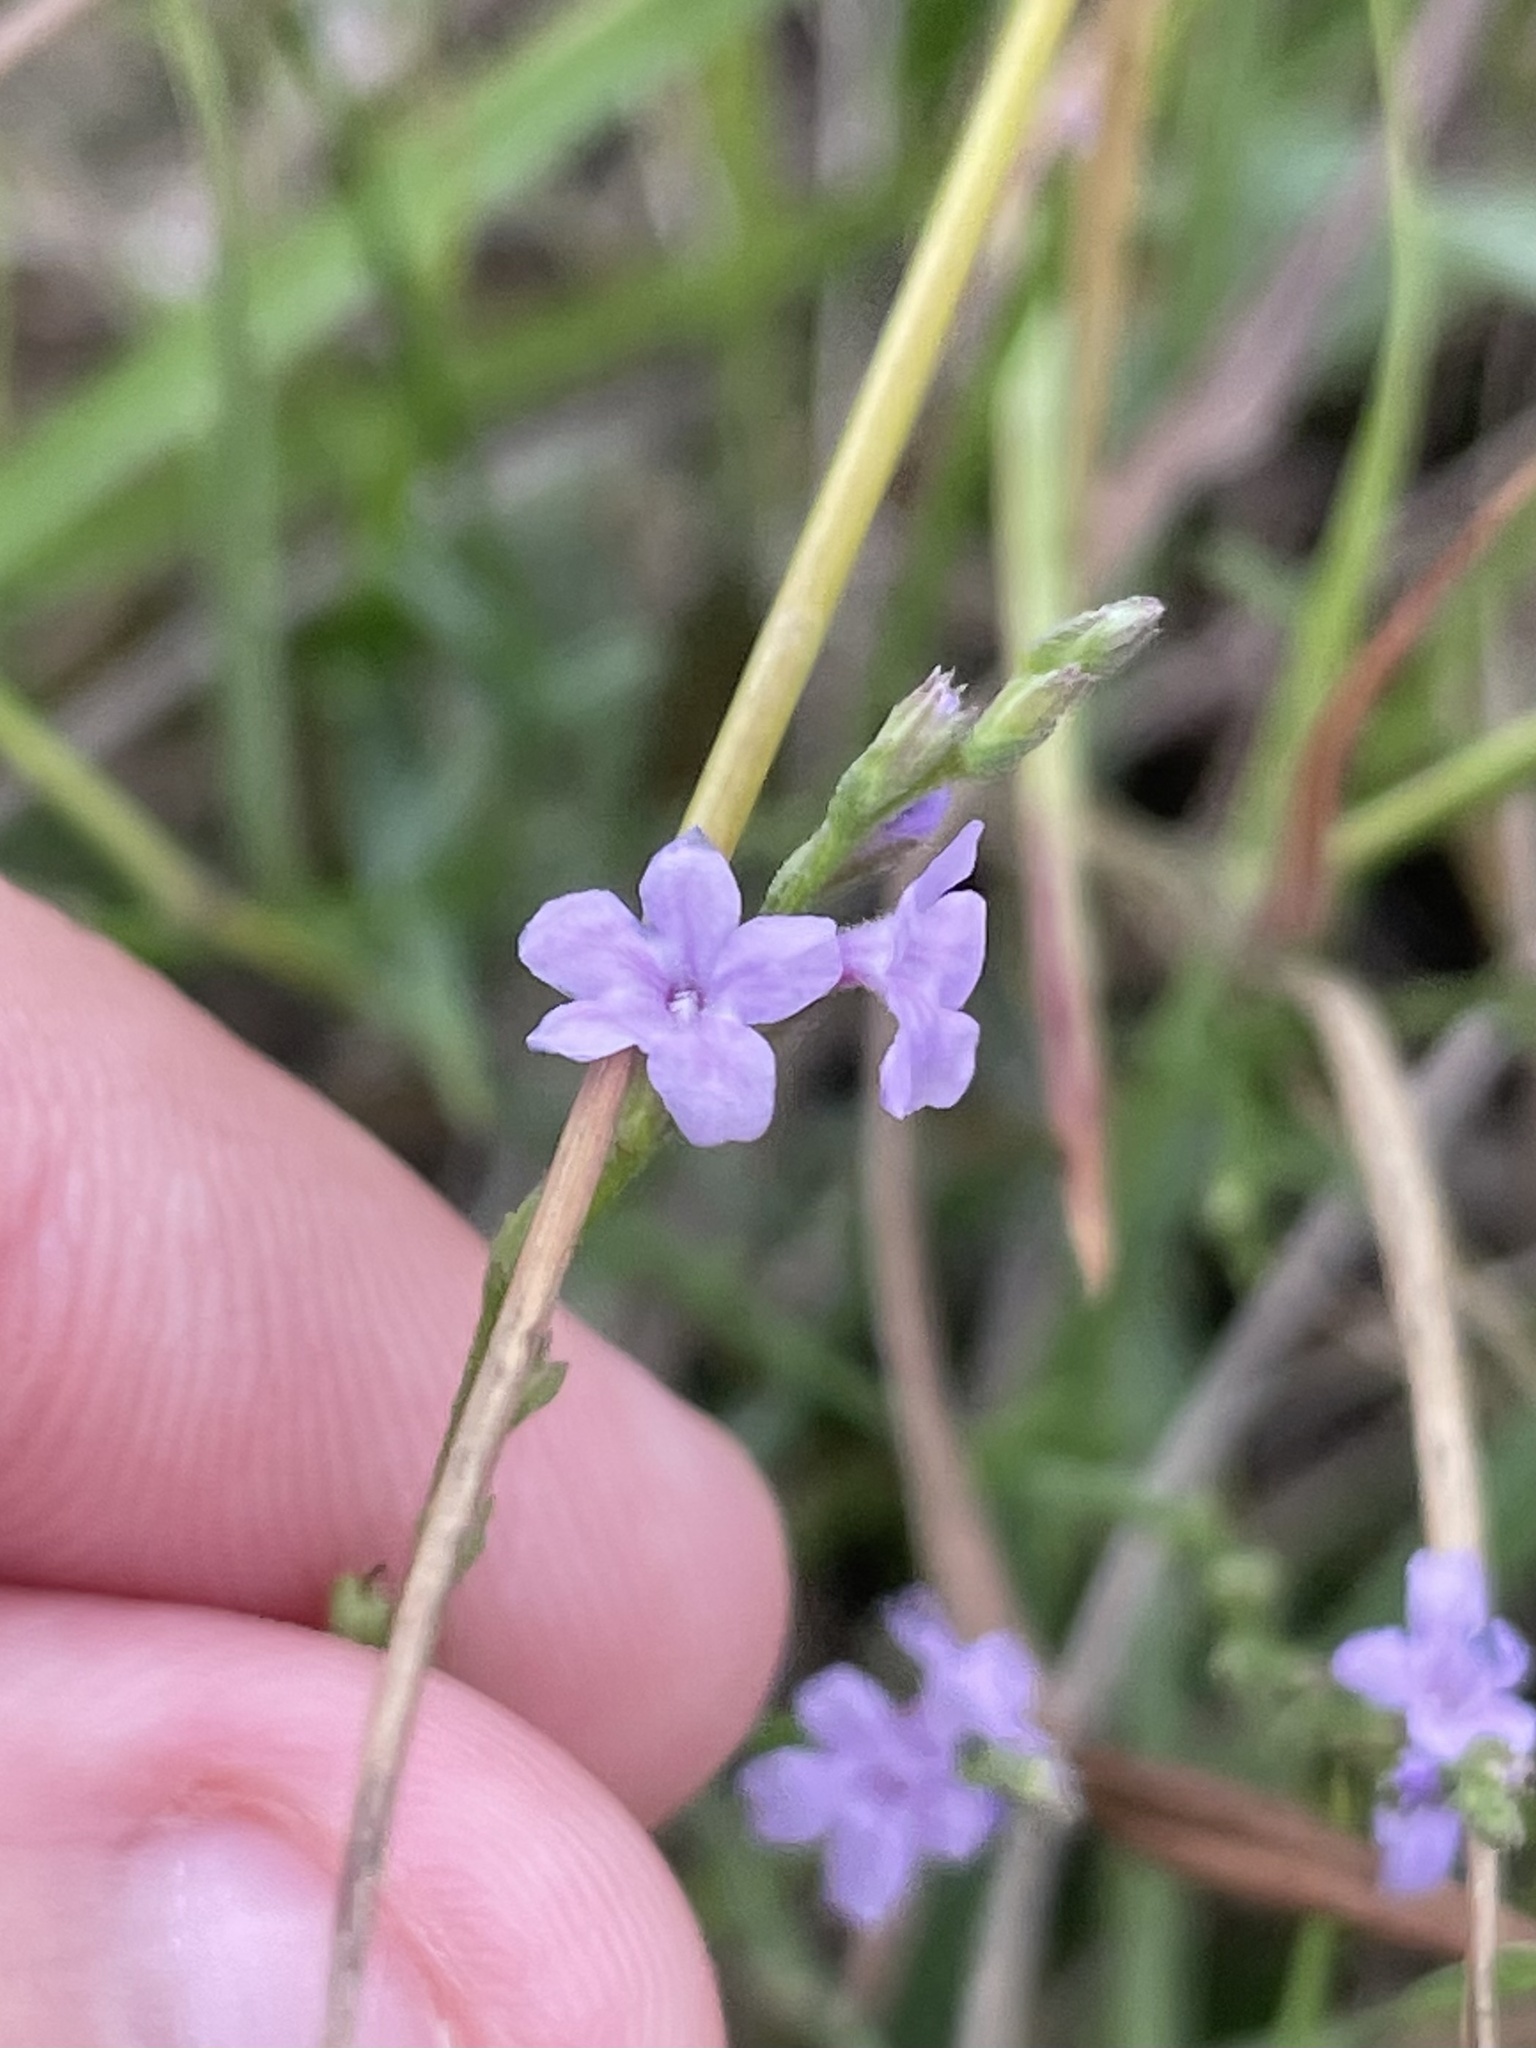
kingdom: Plantae
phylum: Tracheophyta
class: Magnoliopsida
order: Lamiales
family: Verbenaceae
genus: Verbena
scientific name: Verbena halei
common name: Texas vervain
